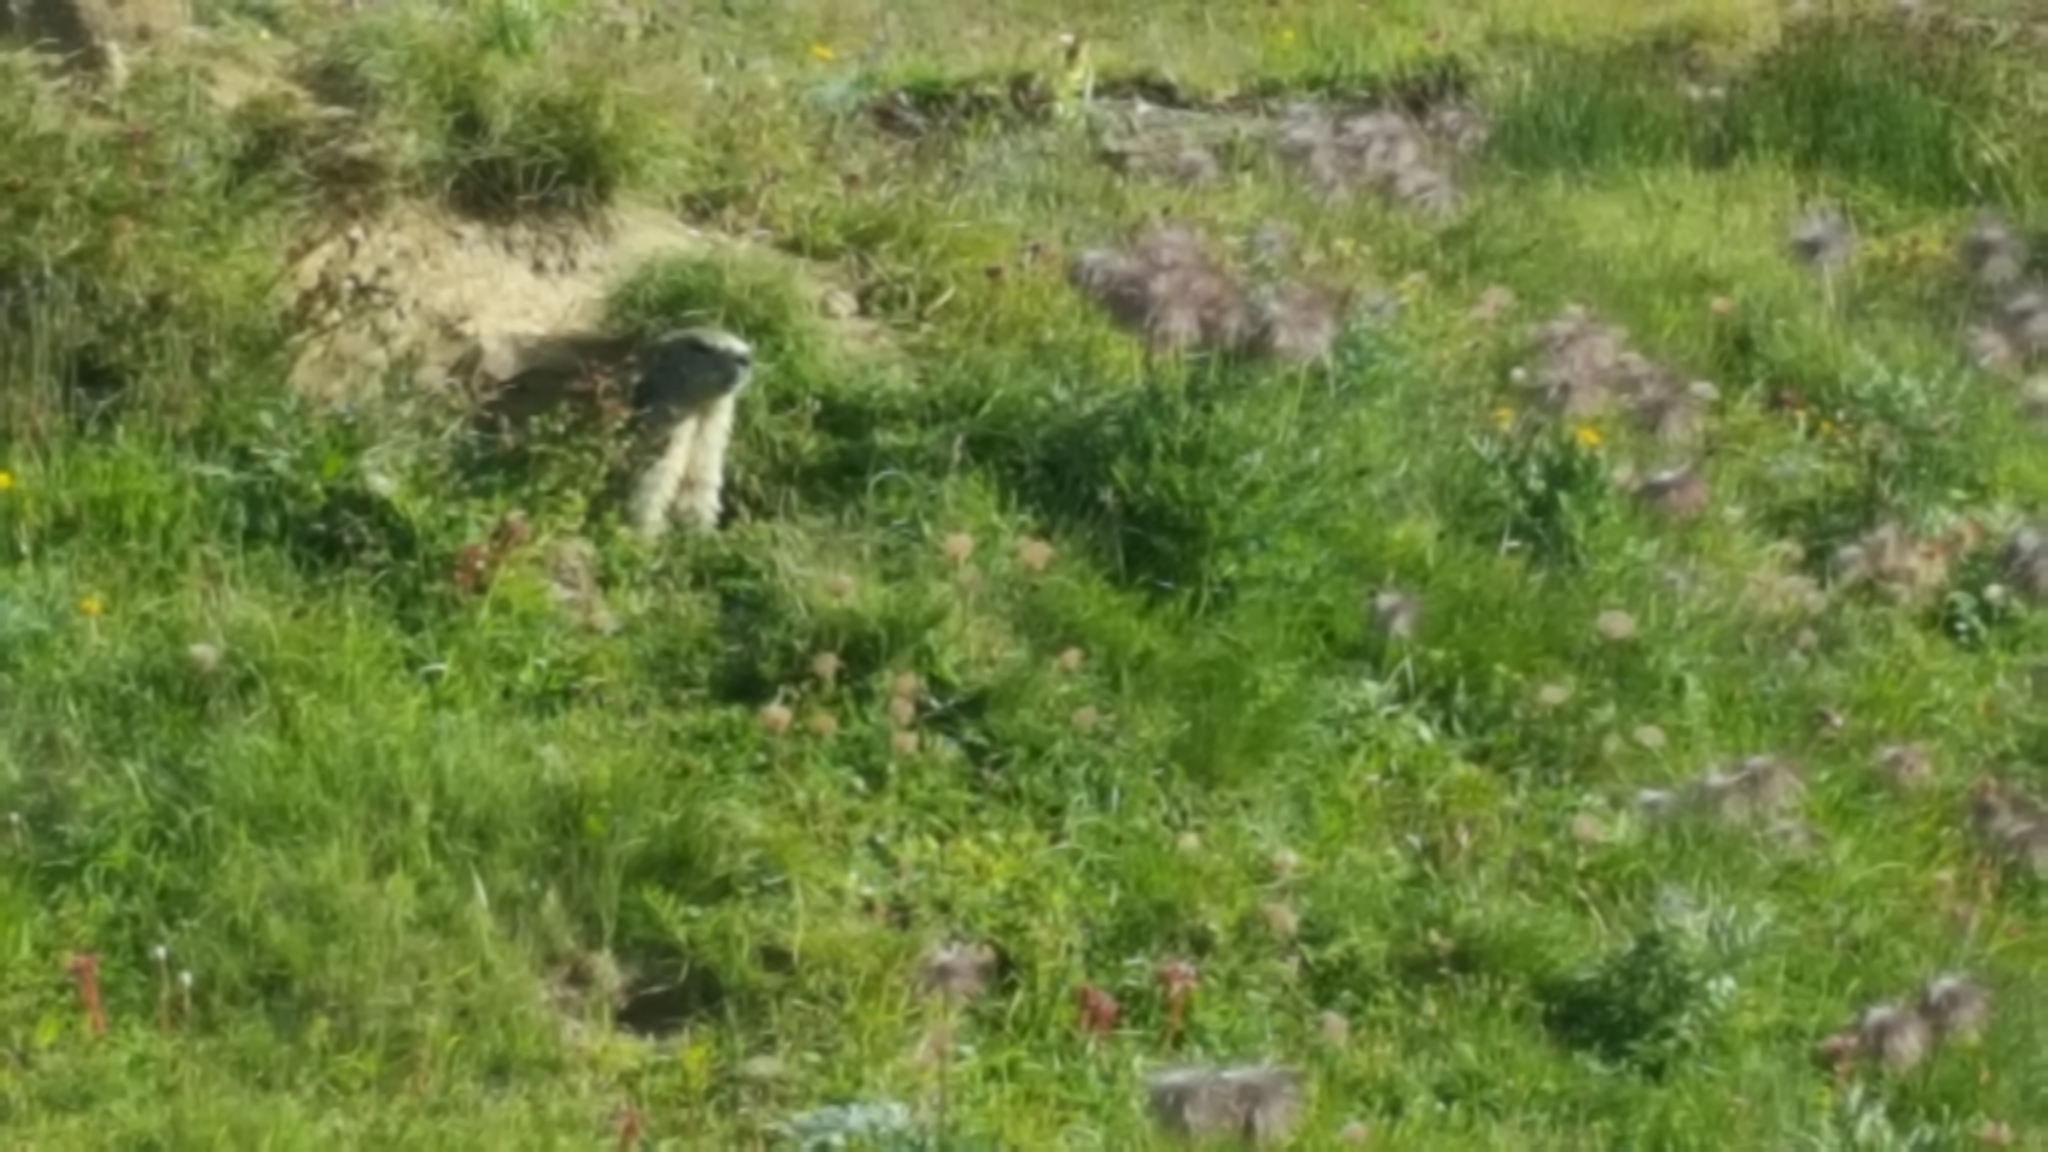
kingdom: Animalia
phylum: Chordata
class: Mammalia
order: Rodentia
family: Sciuridae
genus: Marmota
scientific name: Marmota marmota
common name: Alpine marmot
